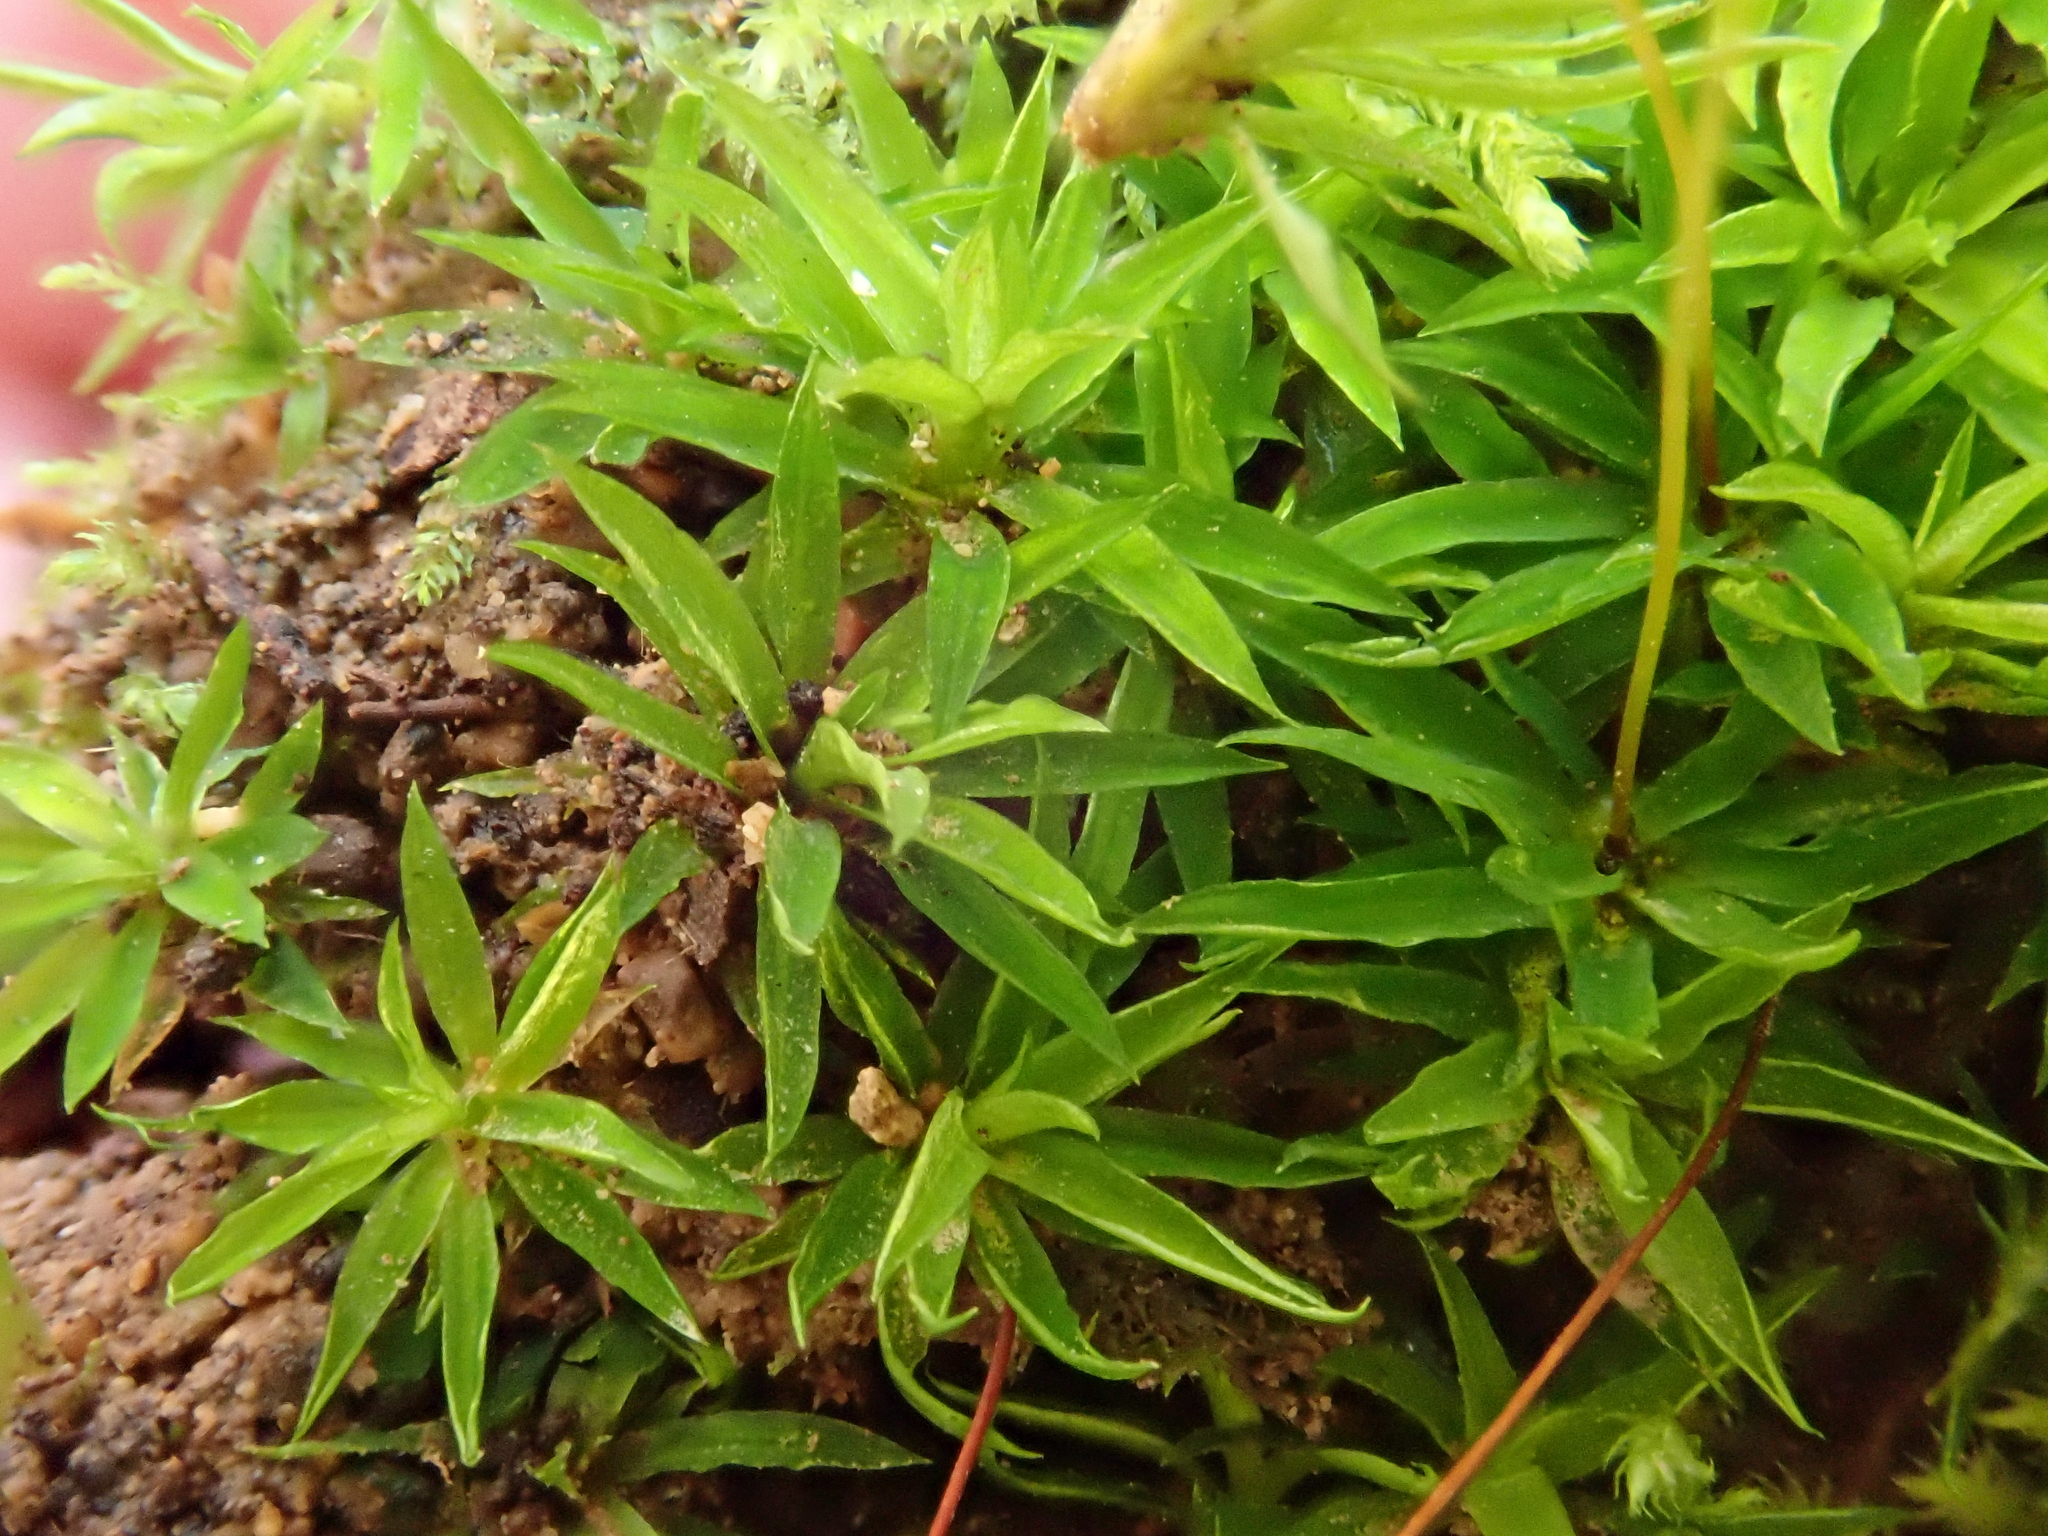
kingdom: Plantae
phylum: Bryophyta
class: Bryopsida
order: Scouleriales
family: Timmiellaceae
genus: Timmiella
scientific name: Timmiella barbuloides
